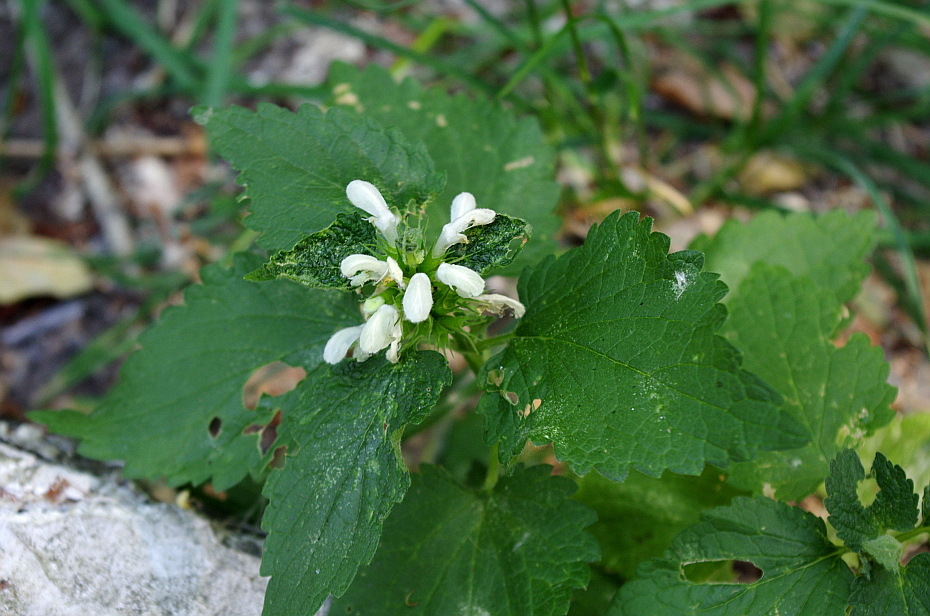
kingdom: Plantae
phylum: Tracheophyta
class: Magnoliopsida
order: Lamiales
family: Lamiaceae
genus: Lamium
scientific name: Lamium album
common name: White dead-nettle
